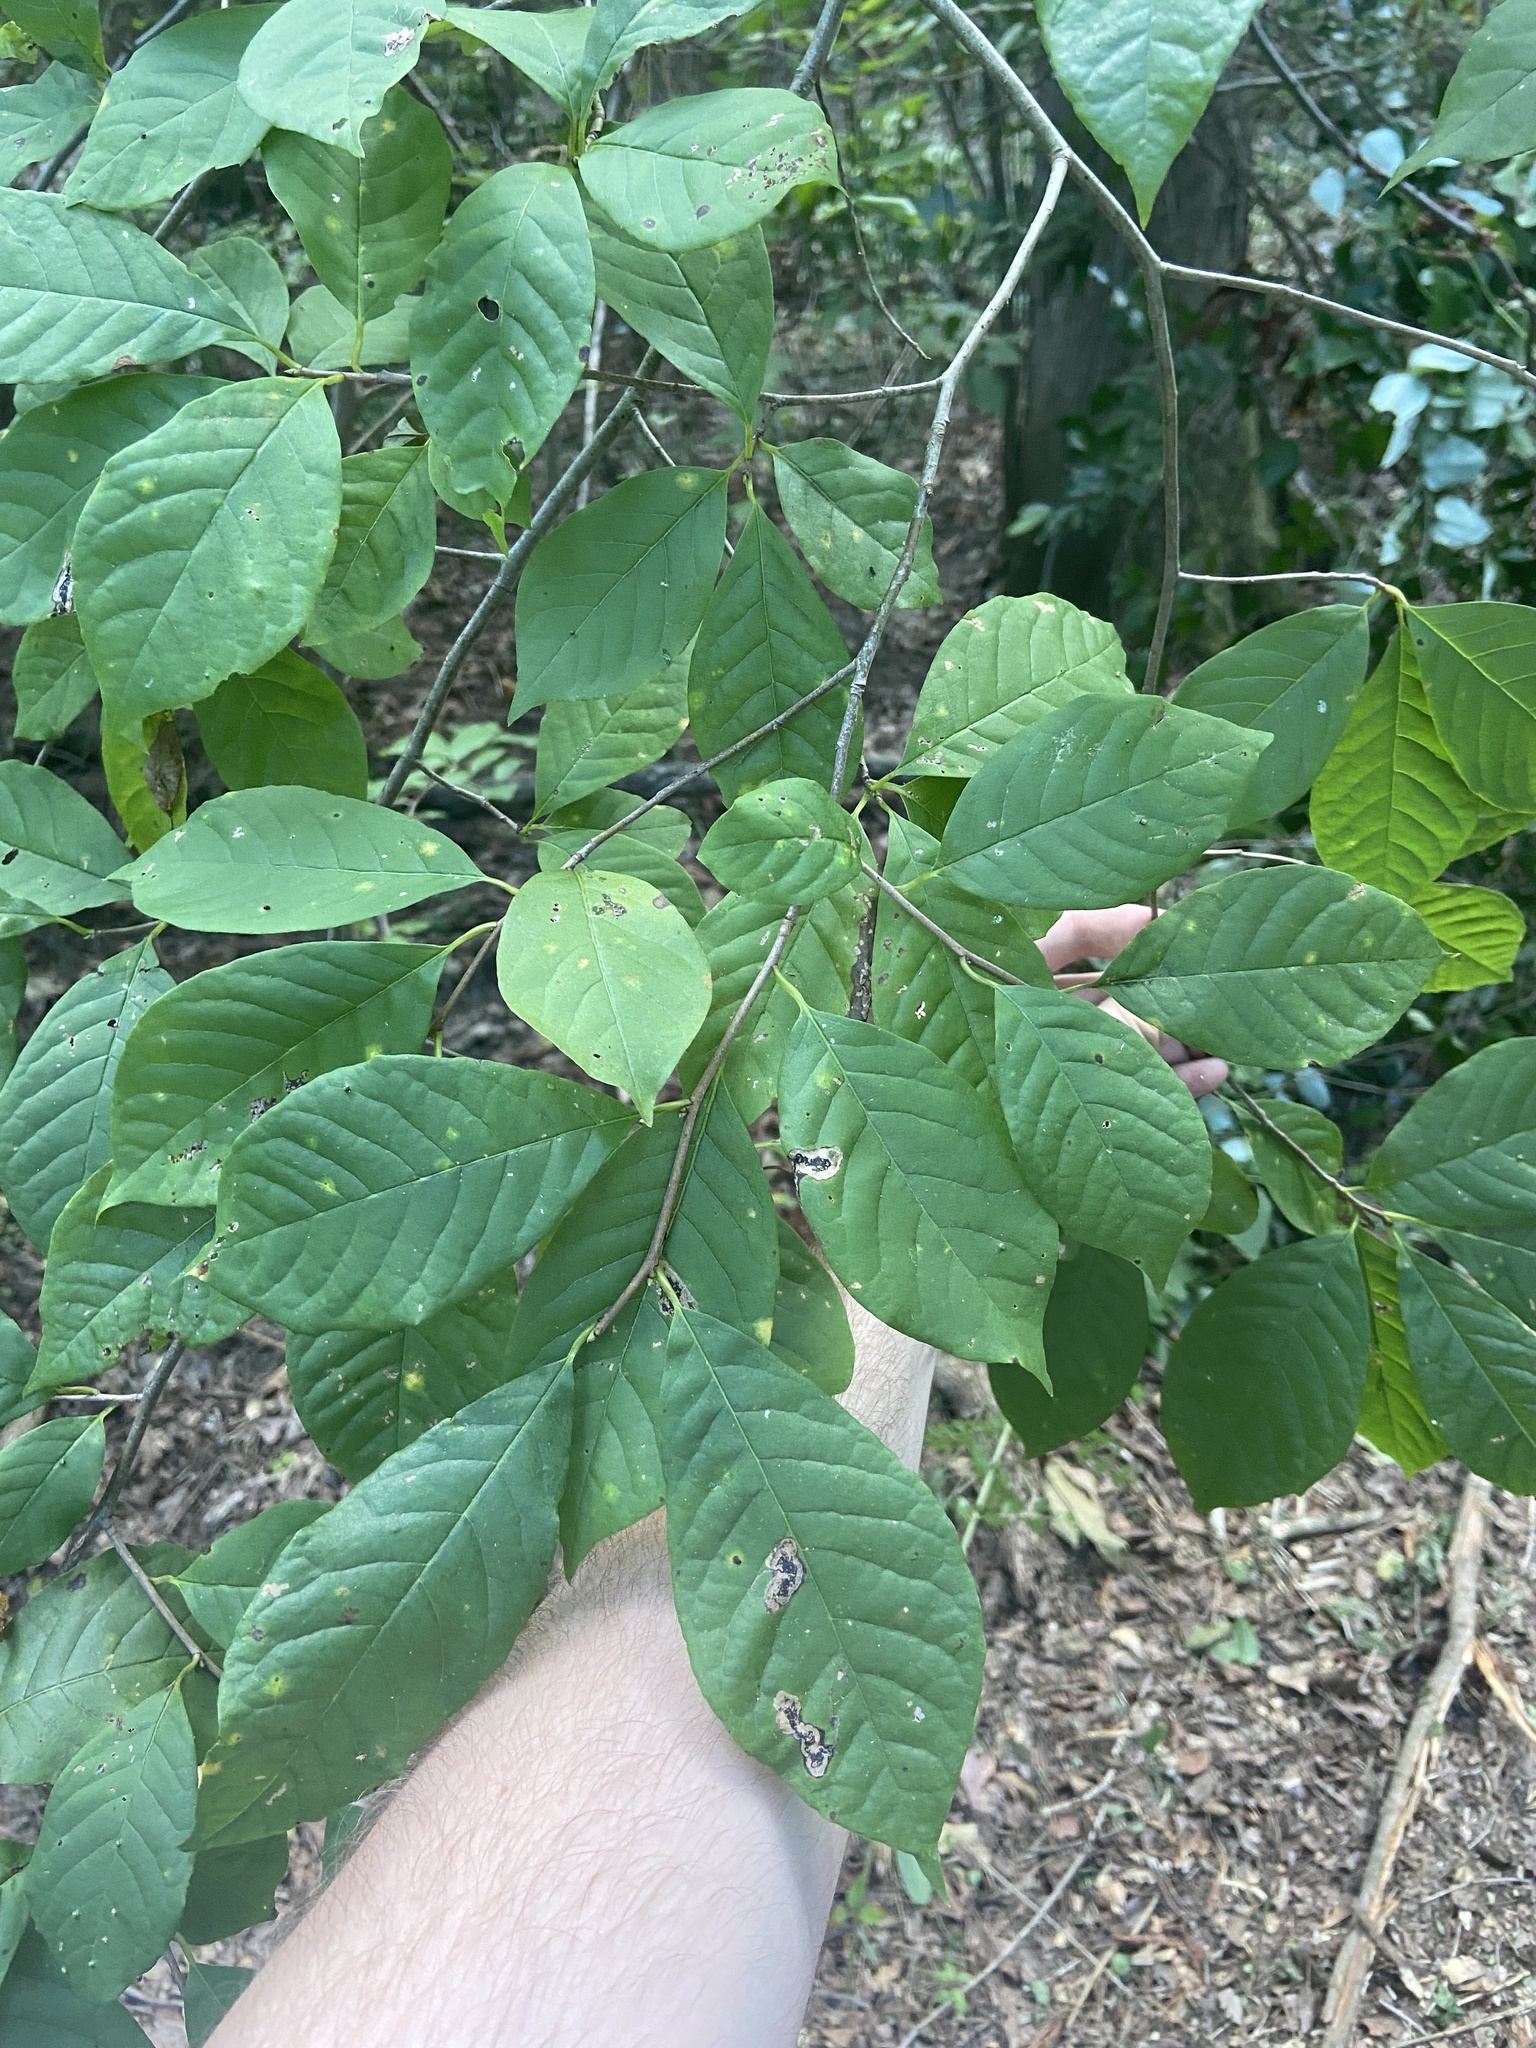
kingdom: Plantae
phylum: Tracheophyta
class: Magnoliopsida
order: Cornales
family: Nyssaceae
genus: Nyssa
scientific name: Nyssa sylvatica
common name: Black tupelo
